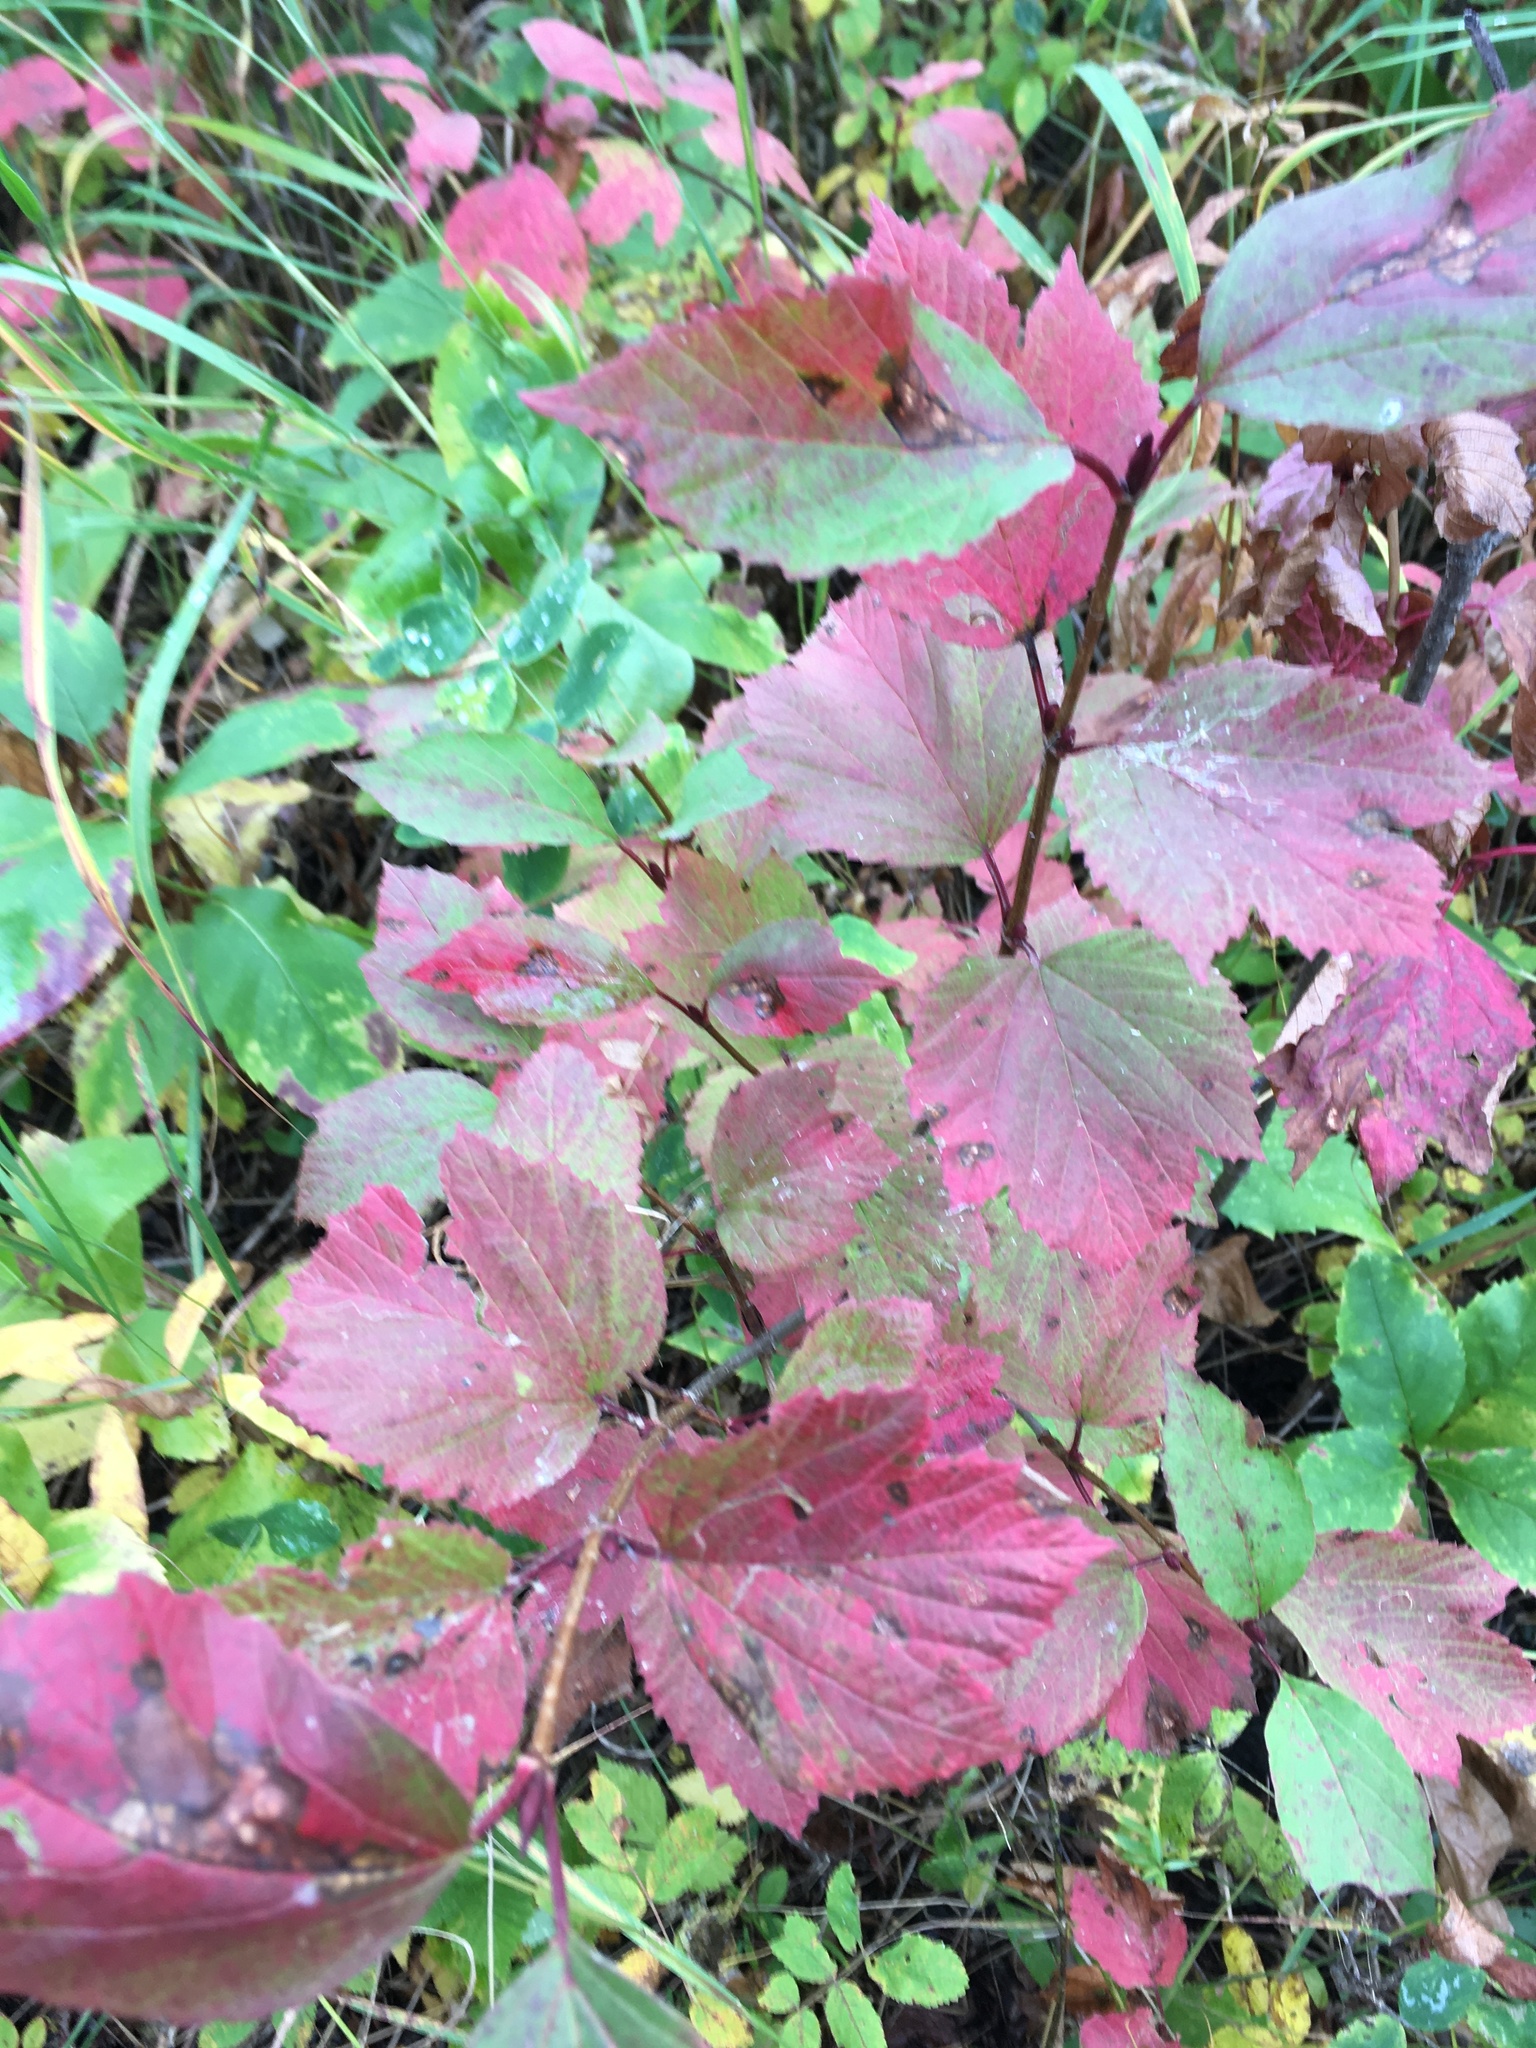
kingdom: Plantae
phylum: Tracheophyta
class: Magnoliopsida
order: Dipsacales
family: Viburnaceae
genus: Viburnum
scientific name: Viburnum edule
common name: Mooseberry
